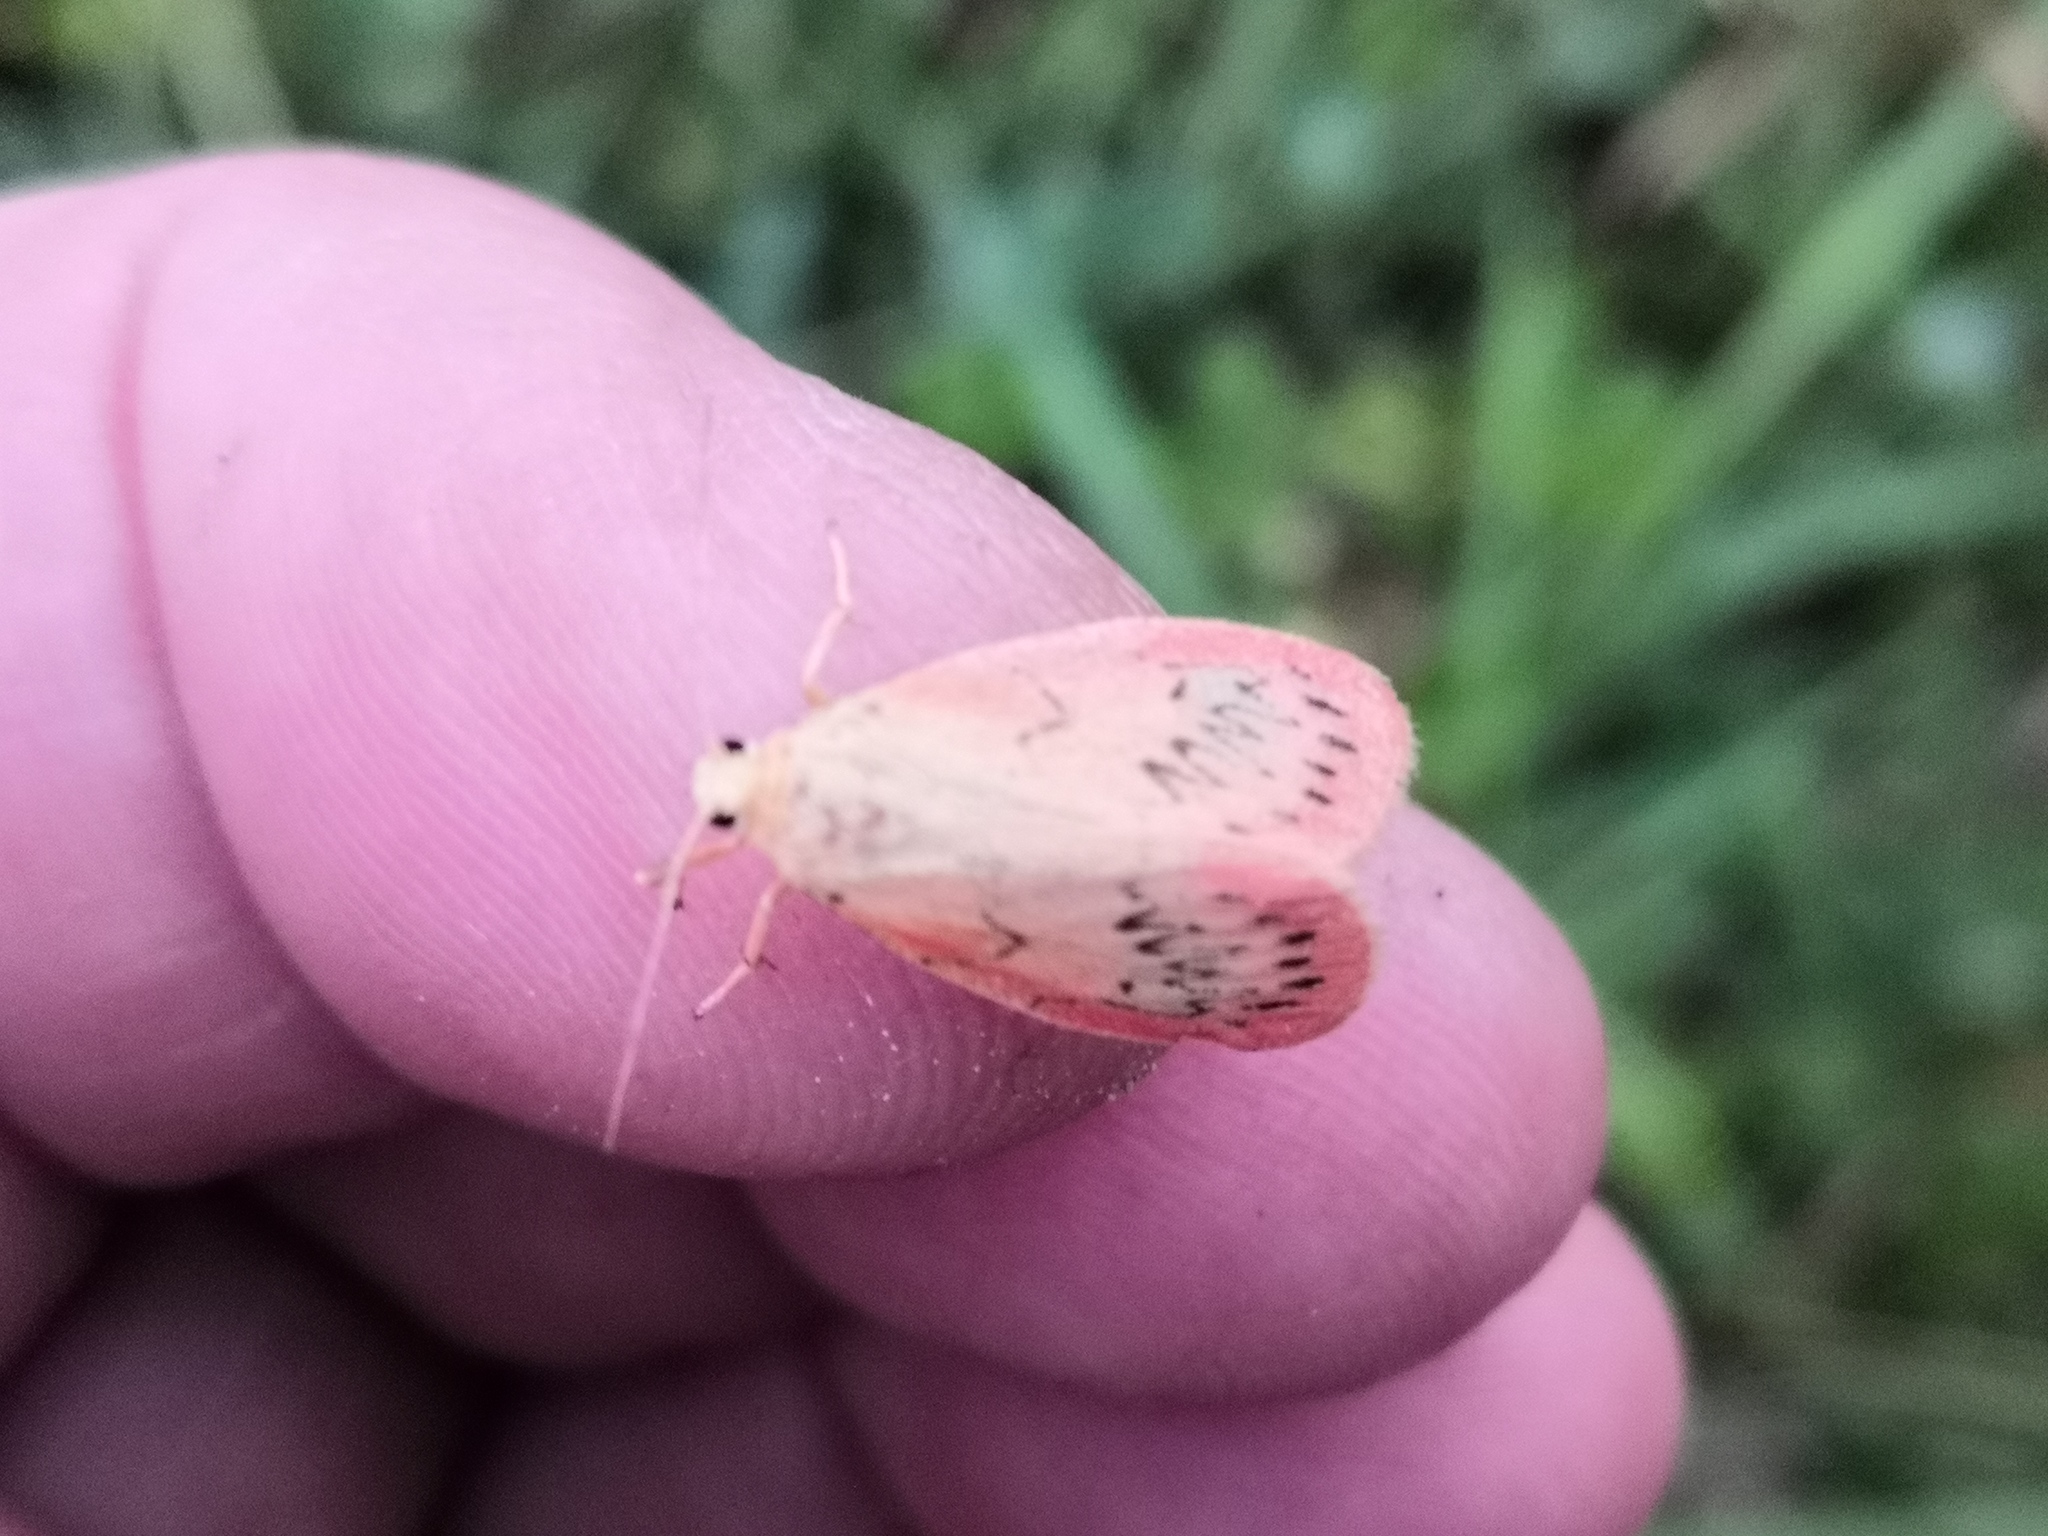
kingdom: Animalia
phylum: Arthropoda
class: Insecta
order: Lepidoptera
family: Erebidae
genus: Miltochrista
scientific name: Miltochrista miniata
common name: Rosy footman
